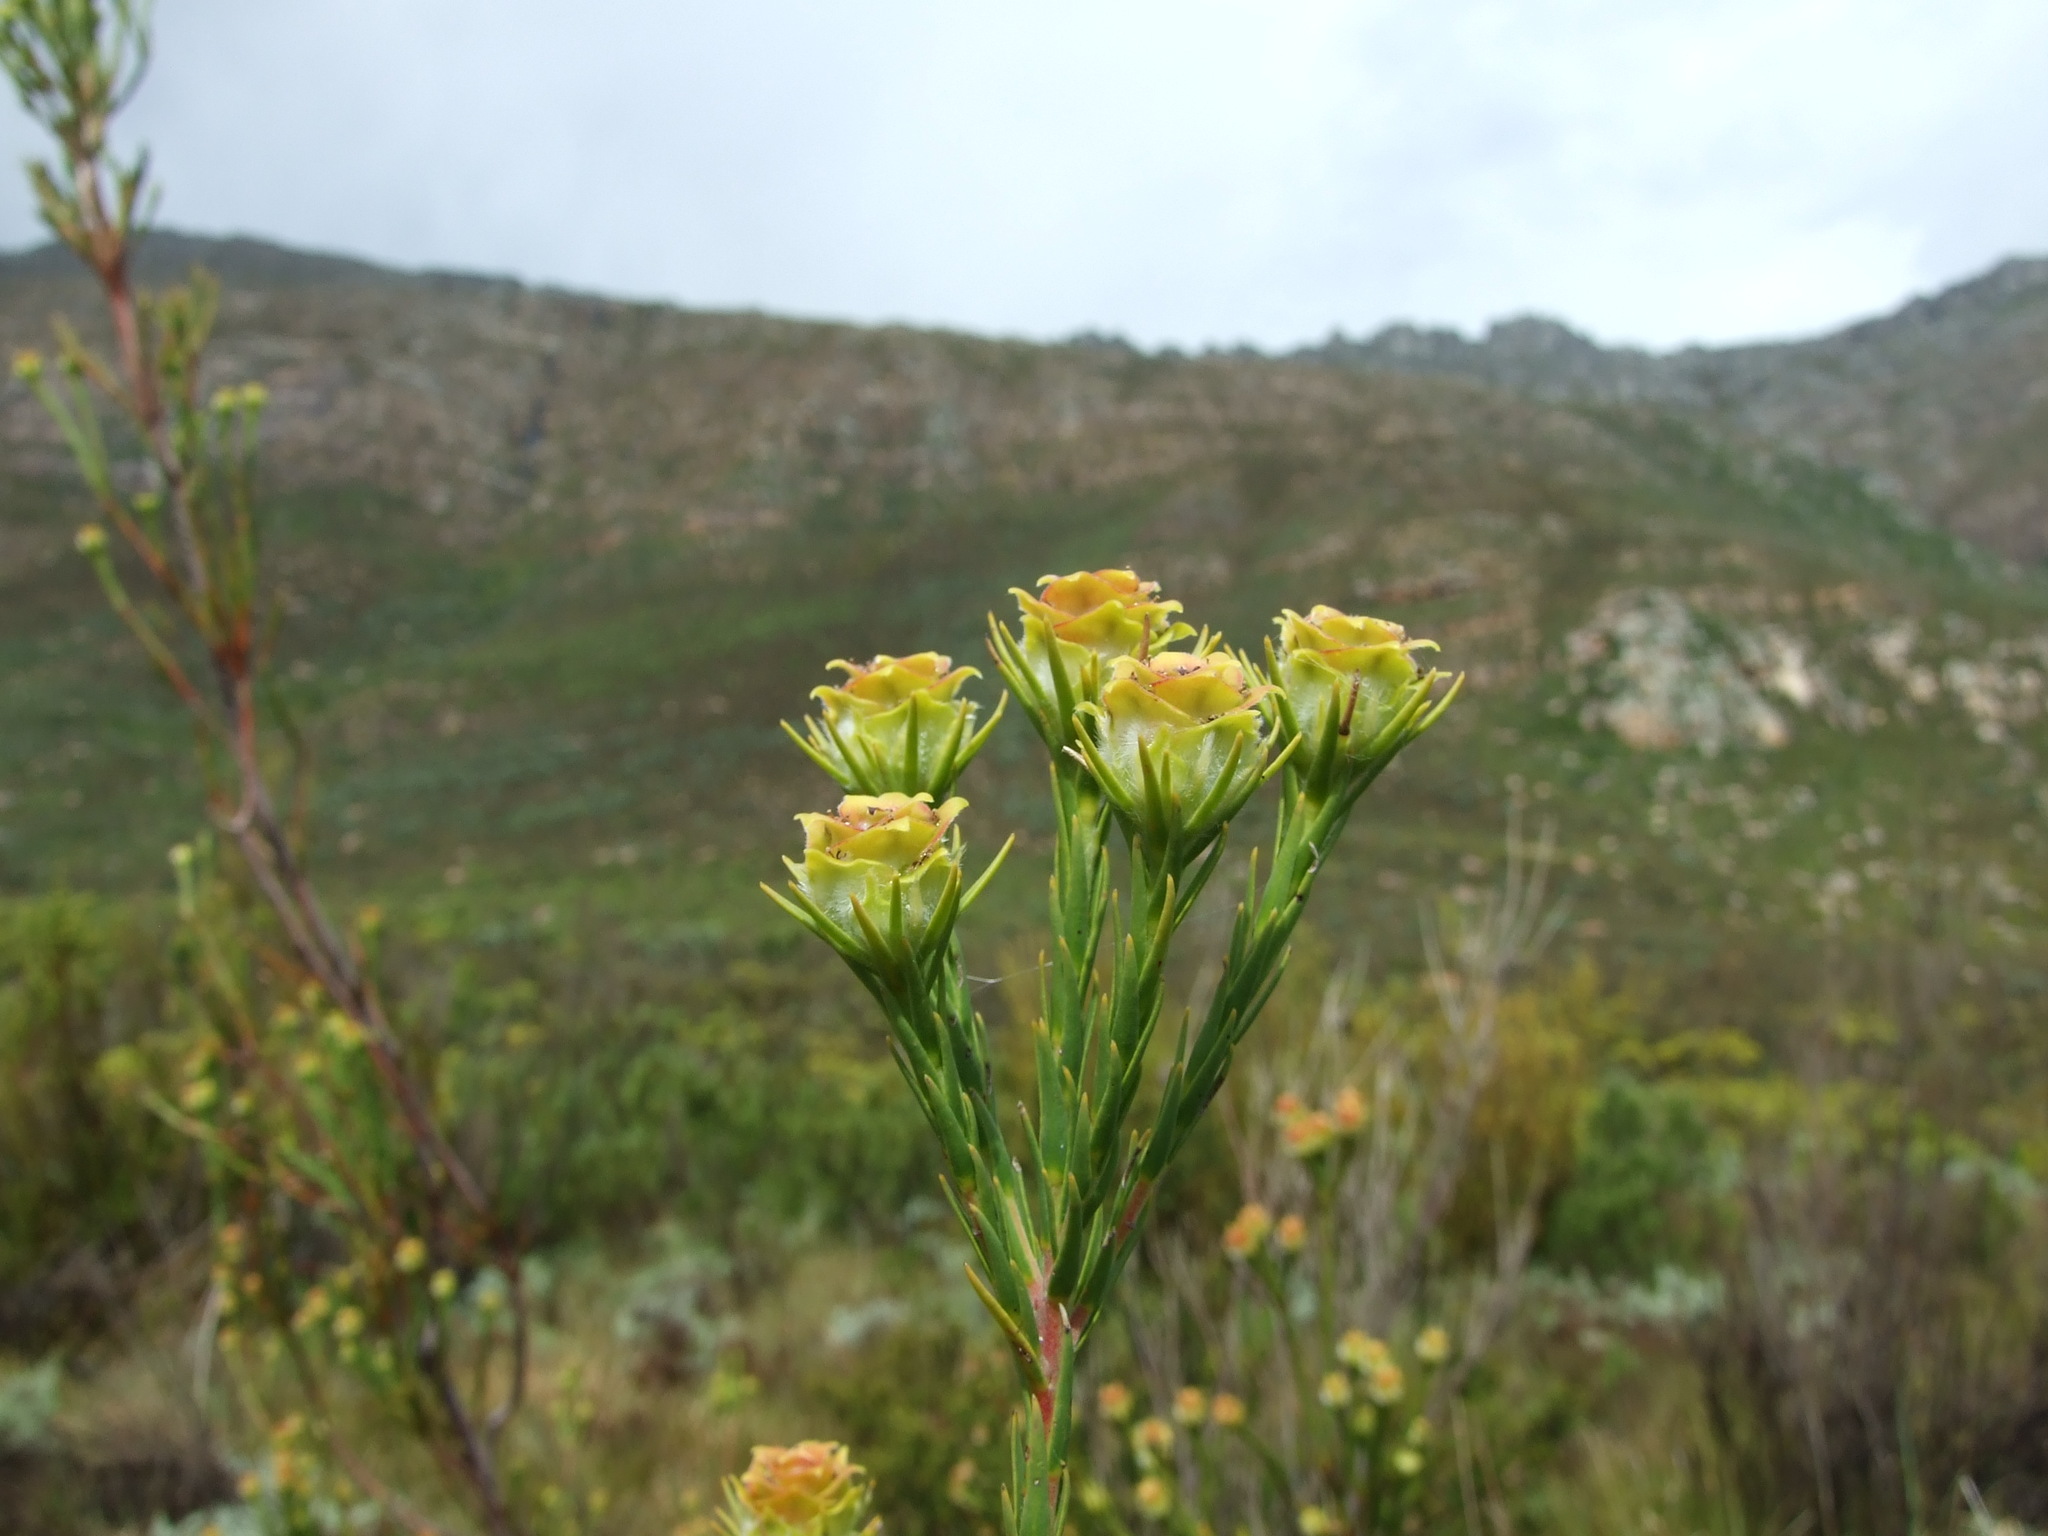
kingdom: Plantae
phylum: Tracheophyta
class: Magnoliopsida
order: Proteales
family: Proteaceae
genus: Leucadendron
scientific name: Leucadendron corymbosum
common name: Swartveld conebush
